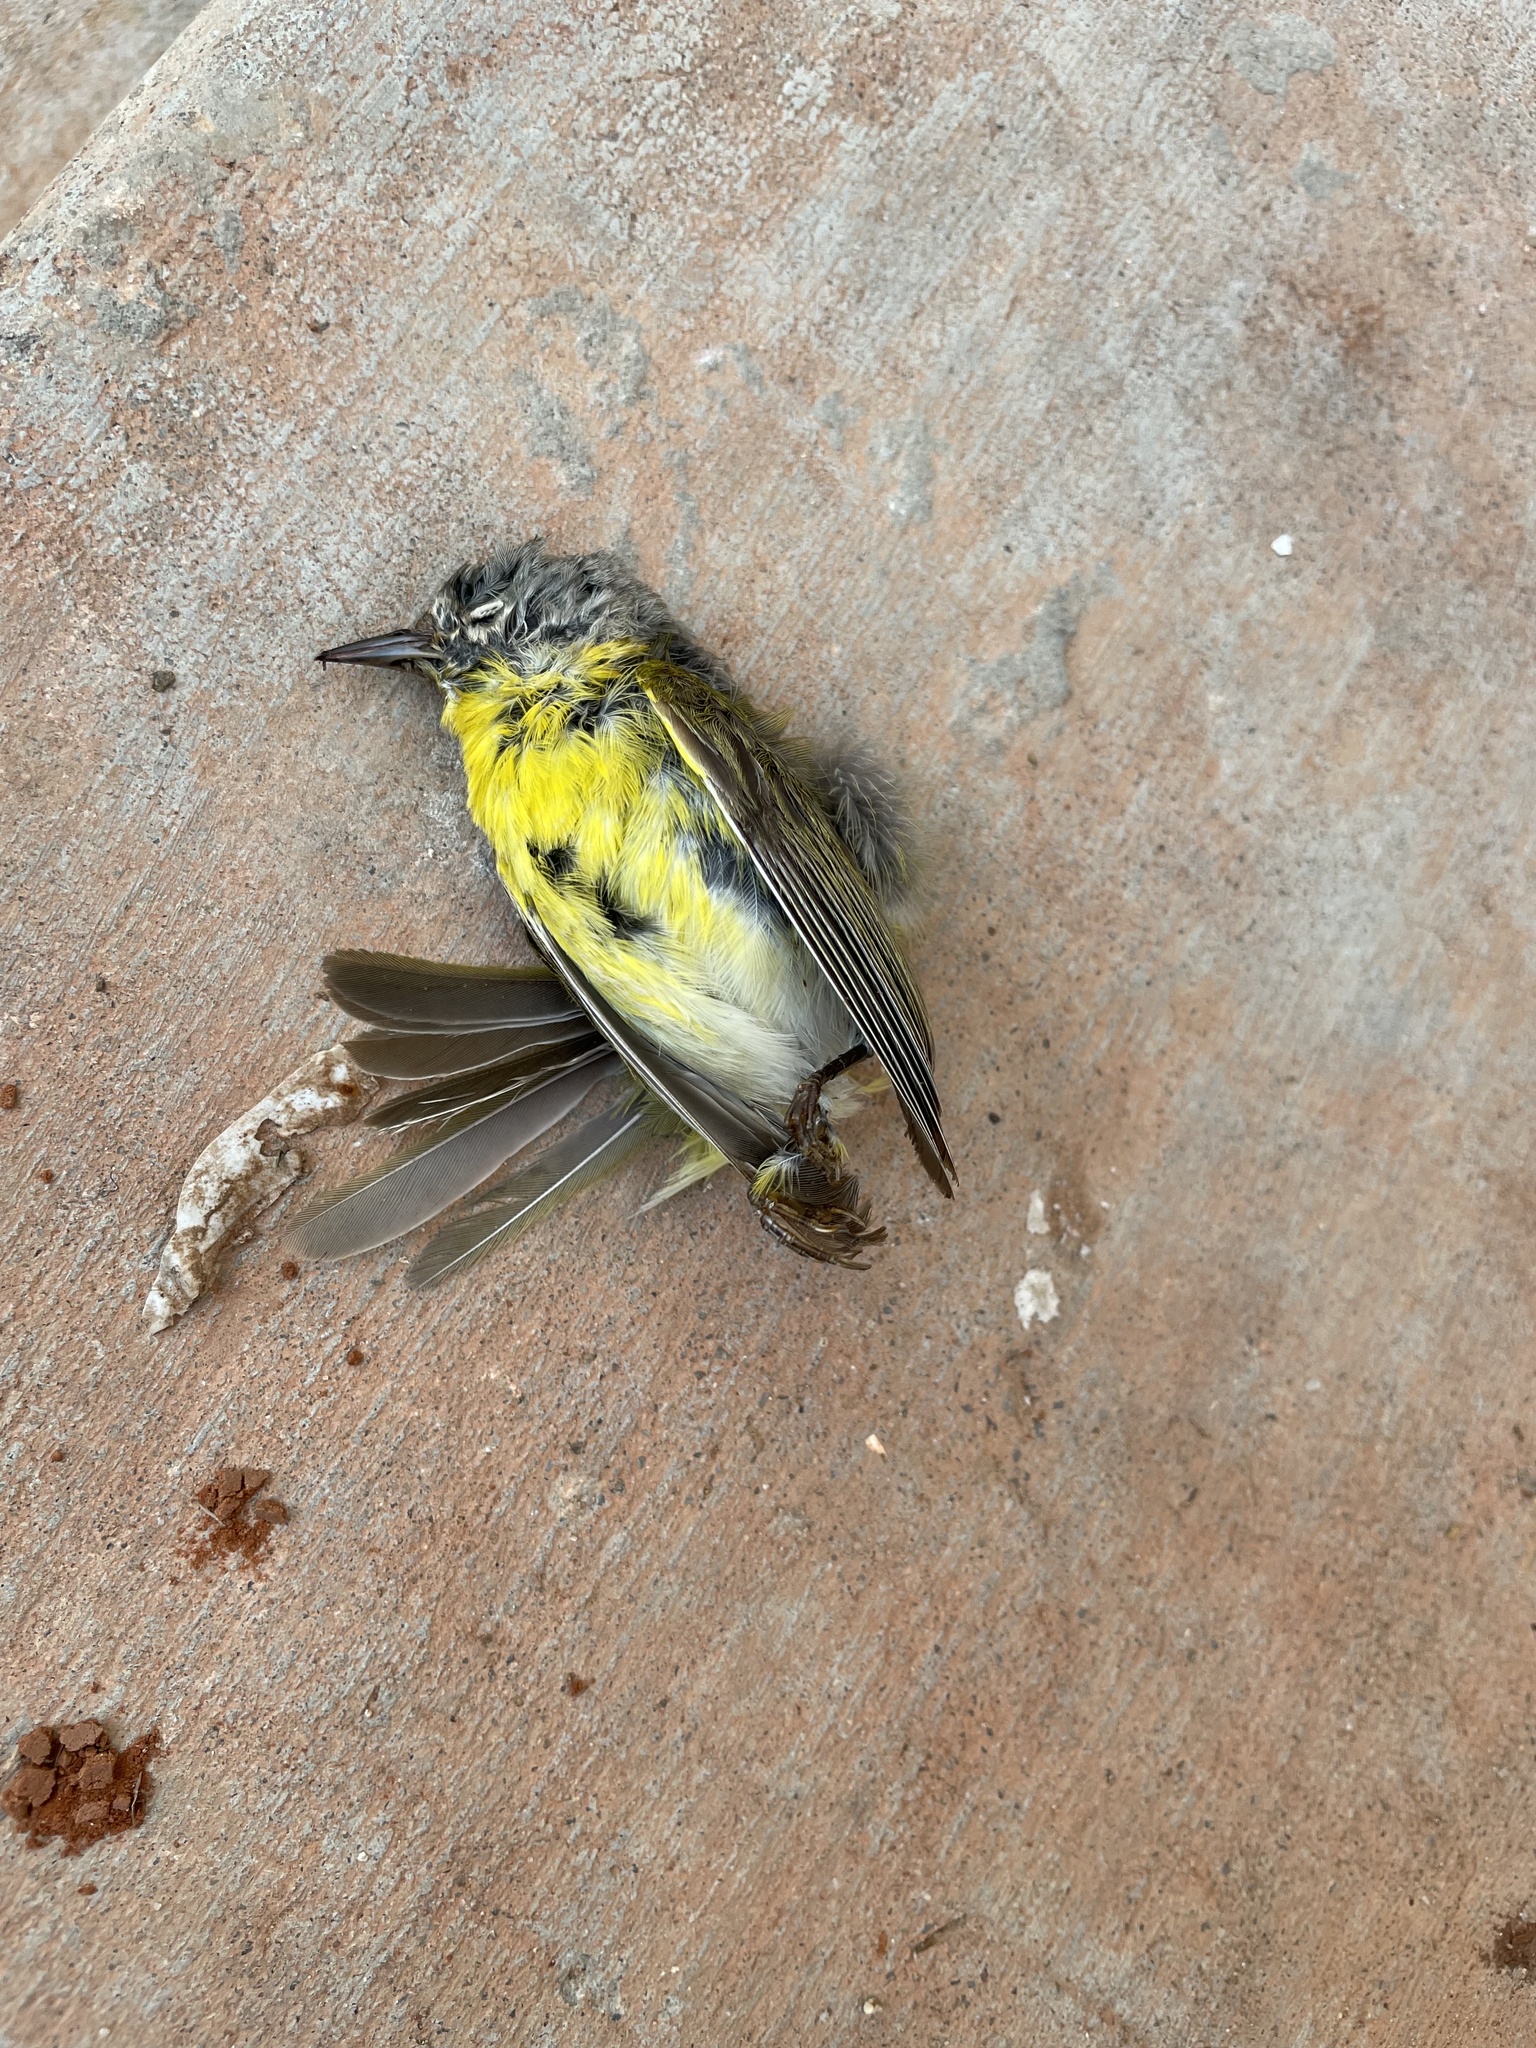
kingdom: Animalia
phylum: Chordata
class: Aves
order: Passeriformes
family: Parulidae
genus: Leiothlypis
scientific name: Leiothlypis ruficapilla
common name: Nashville warbler
